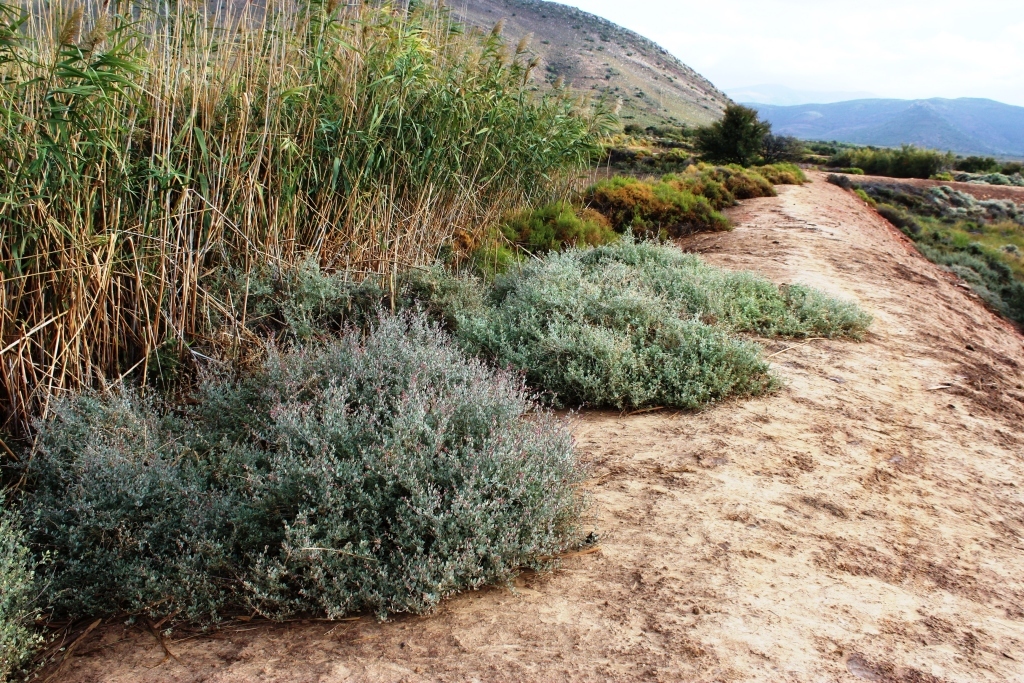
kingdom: Plantae
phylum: Tracheophyta
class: Magnoliopsida
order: Caryophyllales
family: Amaranthaceae
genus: Atriplex
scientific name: Atriplex vestita
